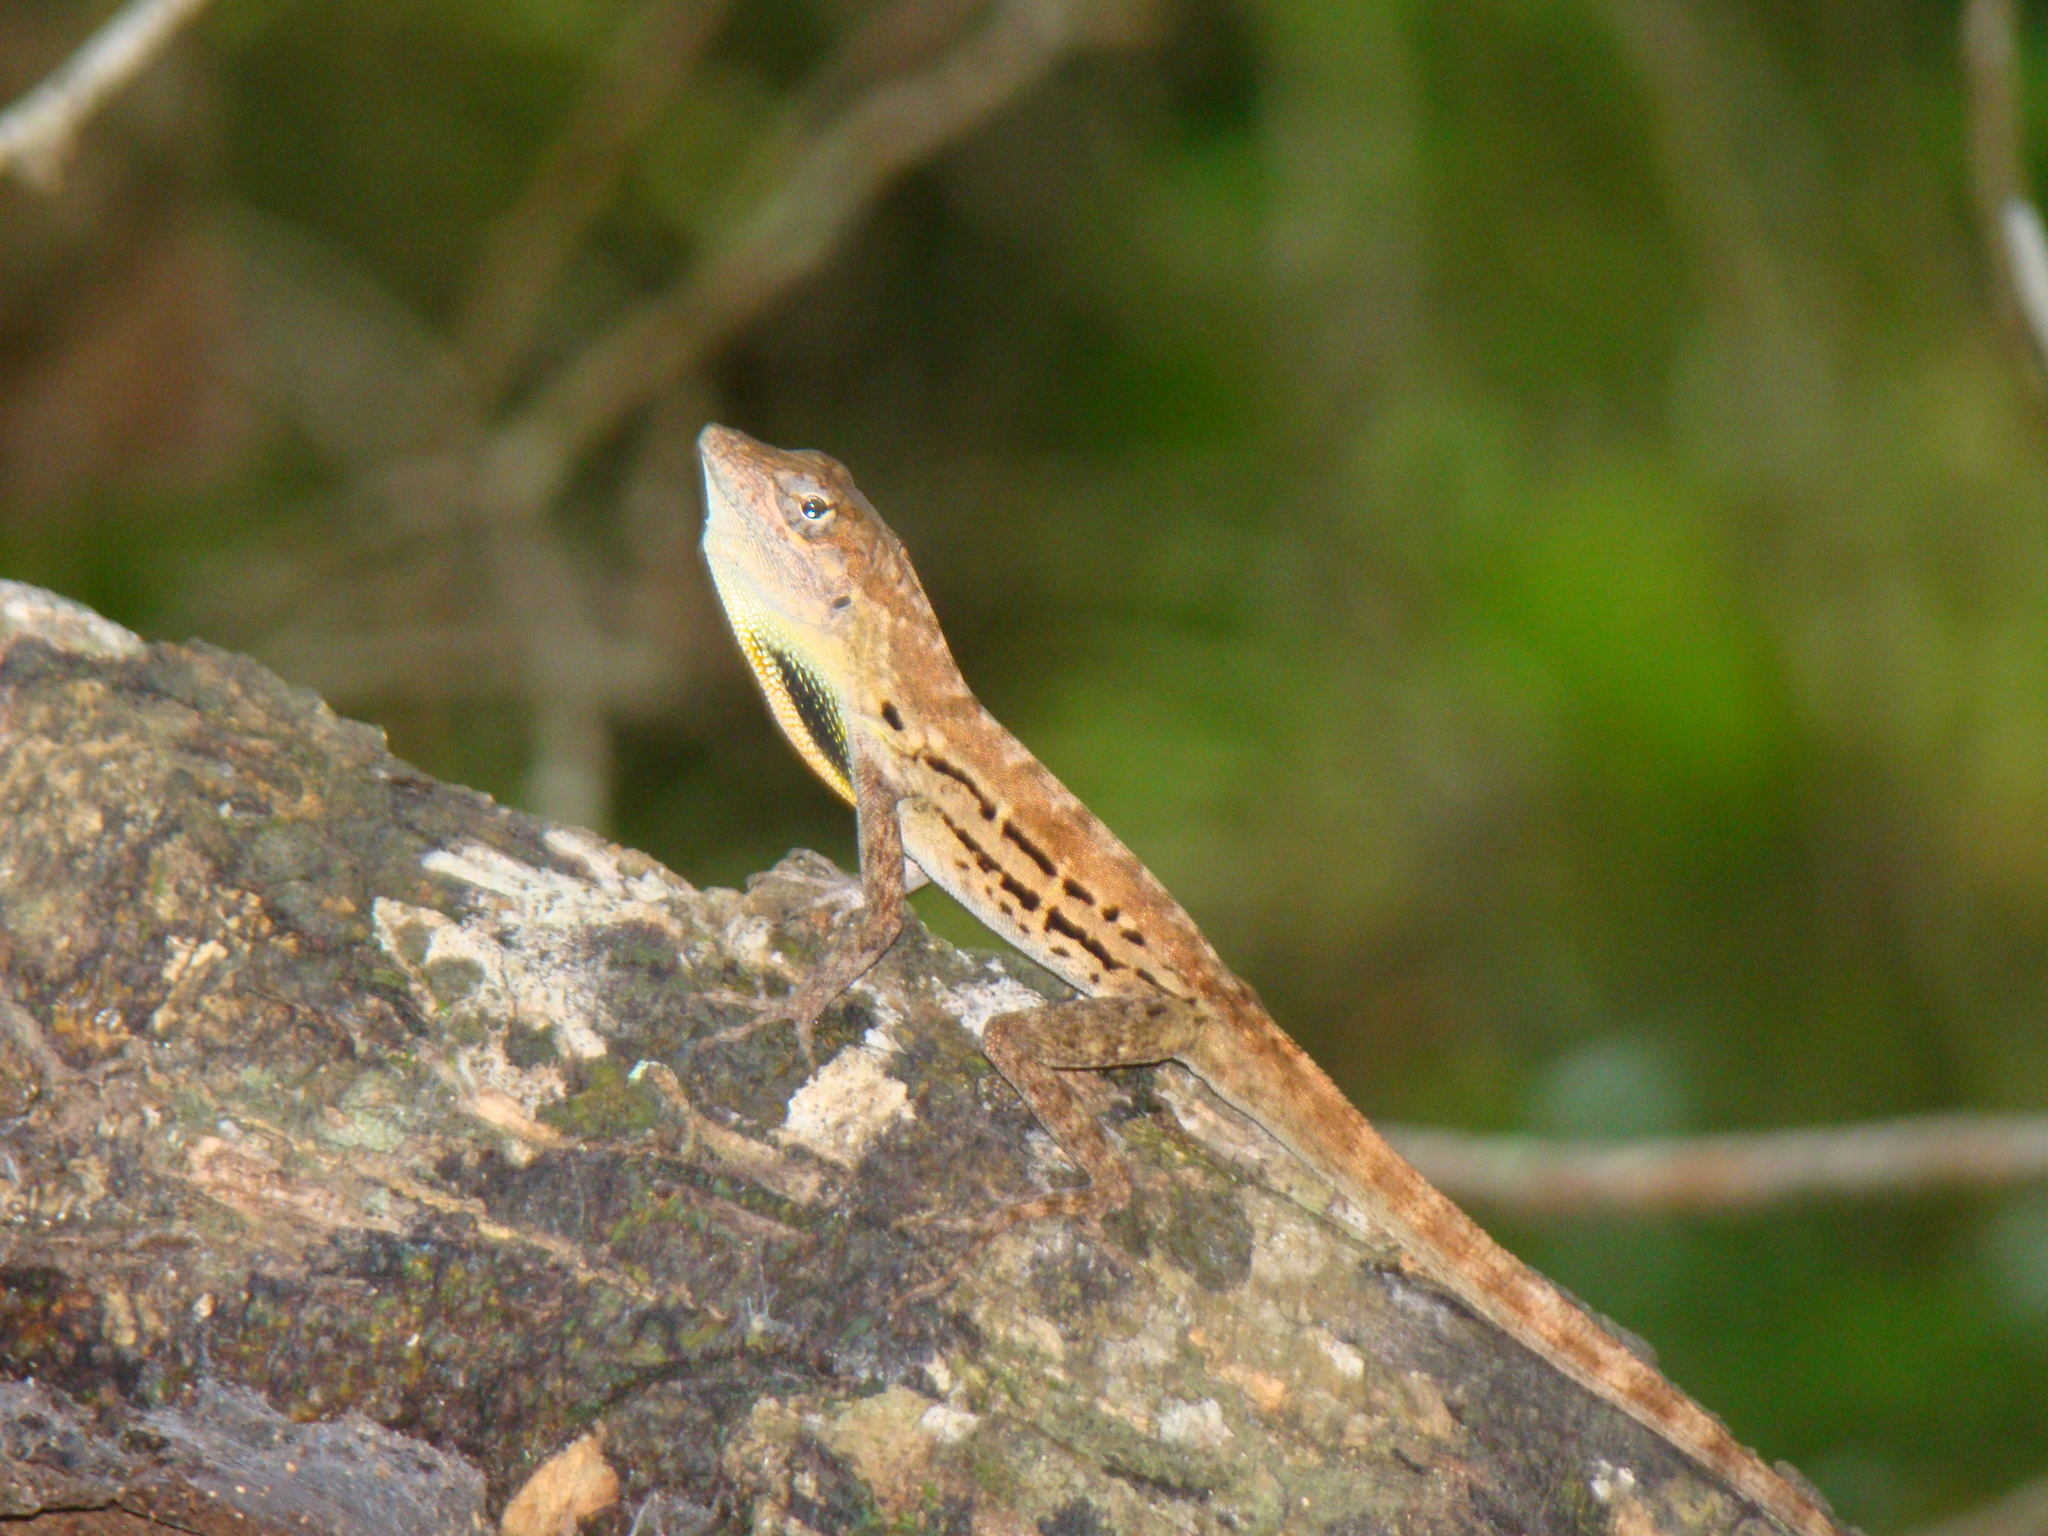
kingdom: Animalia
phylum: Chordata
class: Squamata
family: Dactyloidae
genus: Anolis
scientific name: Anolis lineatus
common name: Striped anole
